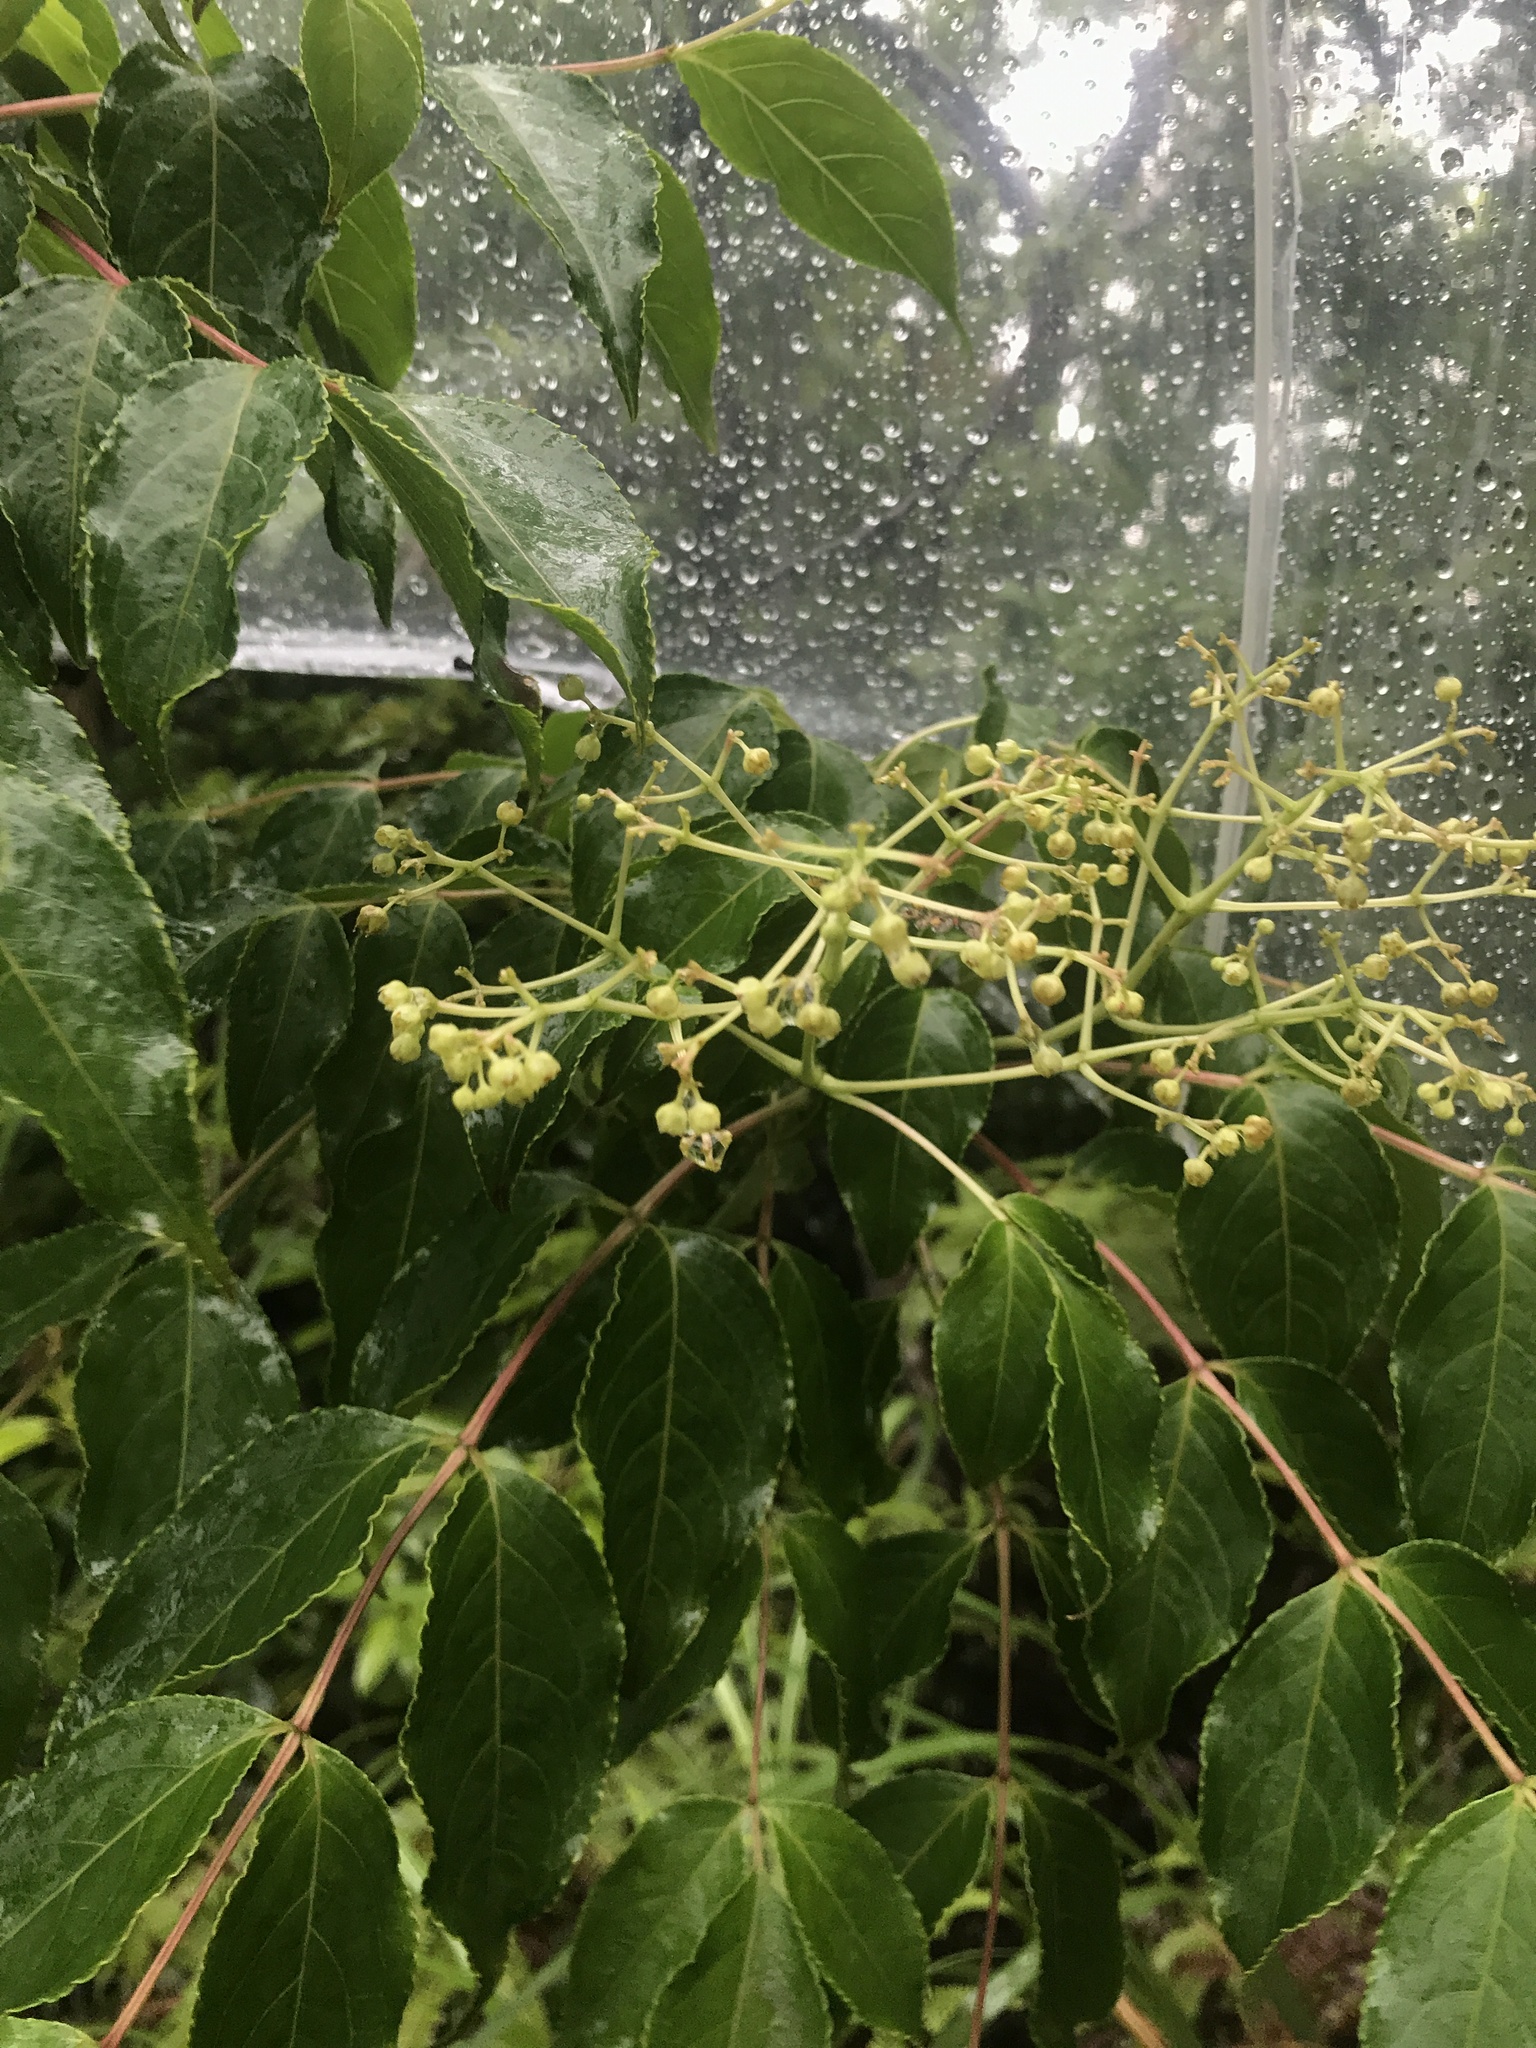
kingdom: Plantae
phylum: Tracheophyta
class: Magnoliopsida
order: Crossosomatales
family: Staphyleaceae
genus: Staphylea
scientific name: Staphylea japonica
